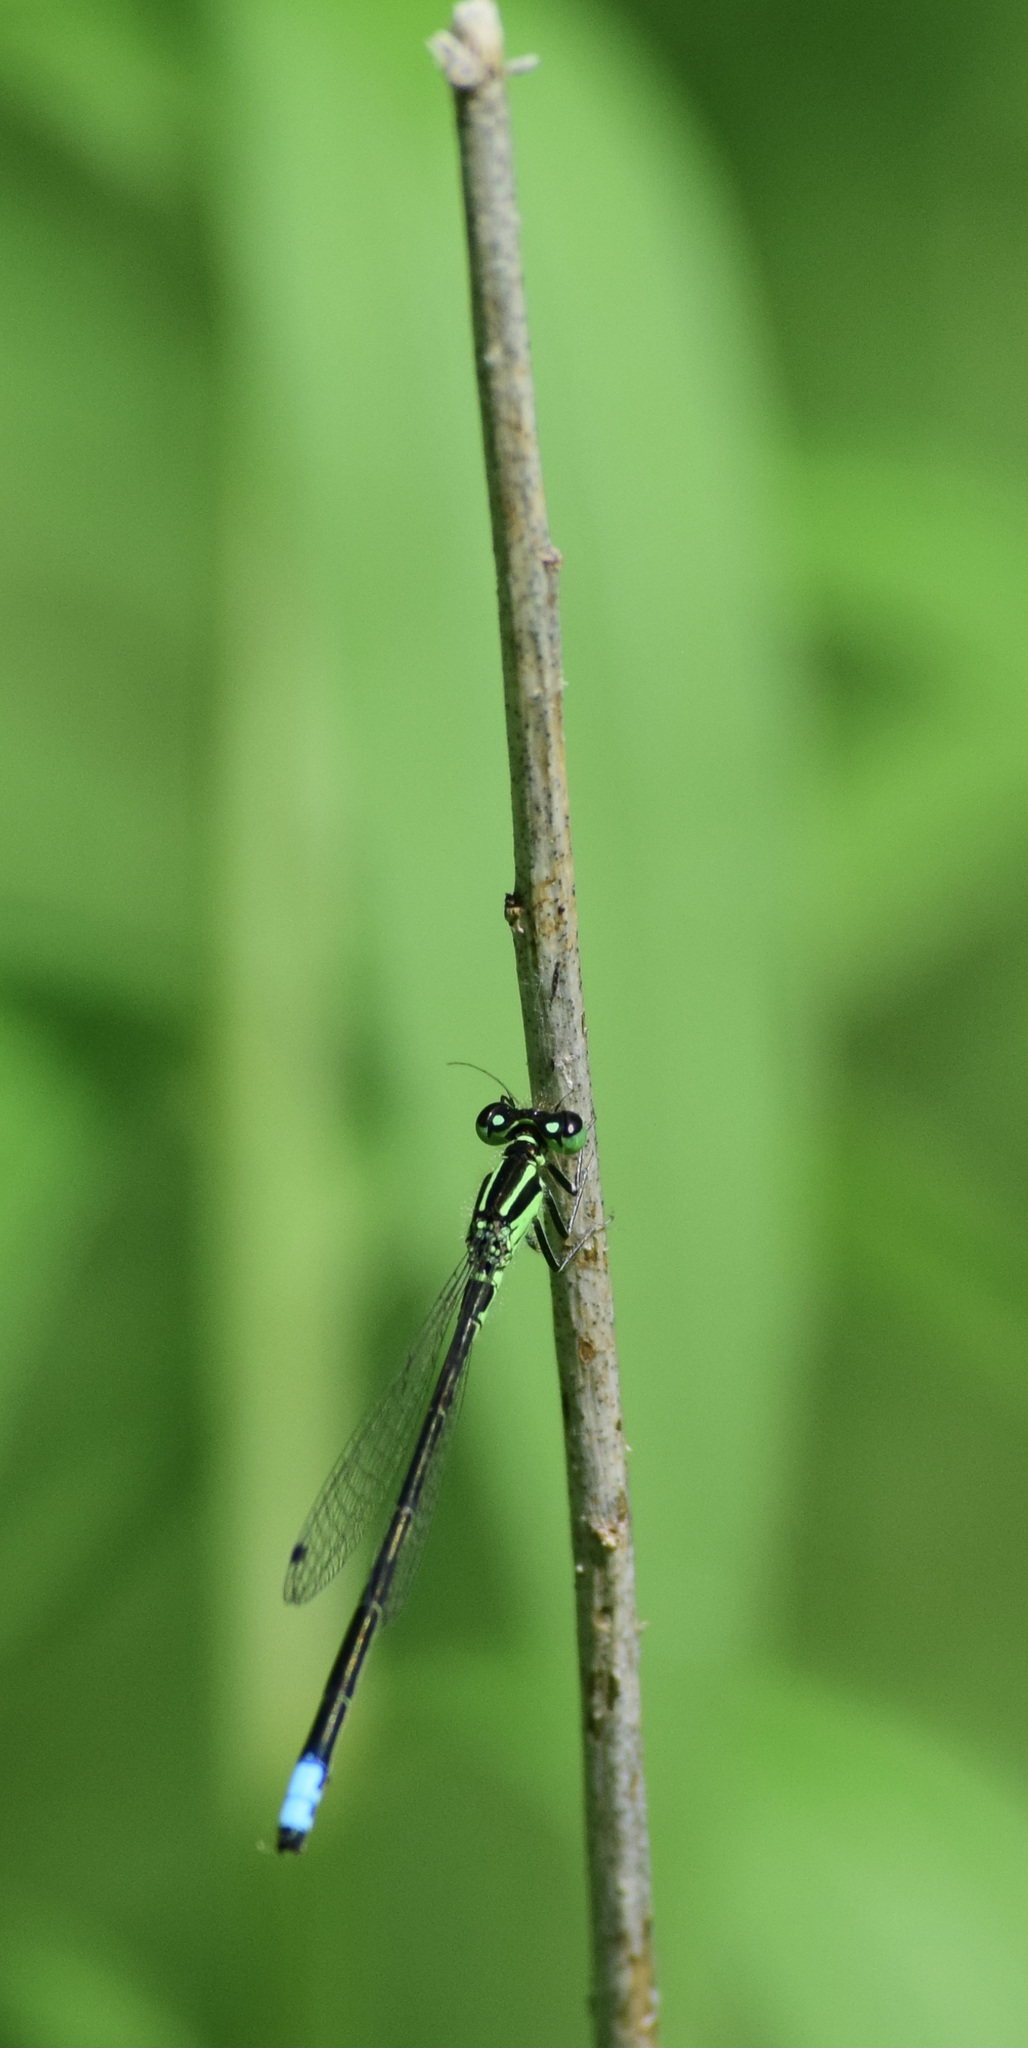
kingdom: Animalia
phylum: Arthropoda
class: Insecta
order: Odonata
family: Coenagrionidae
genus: Ischnura
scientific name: Ischnura verticalis
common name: Eastern forktail
